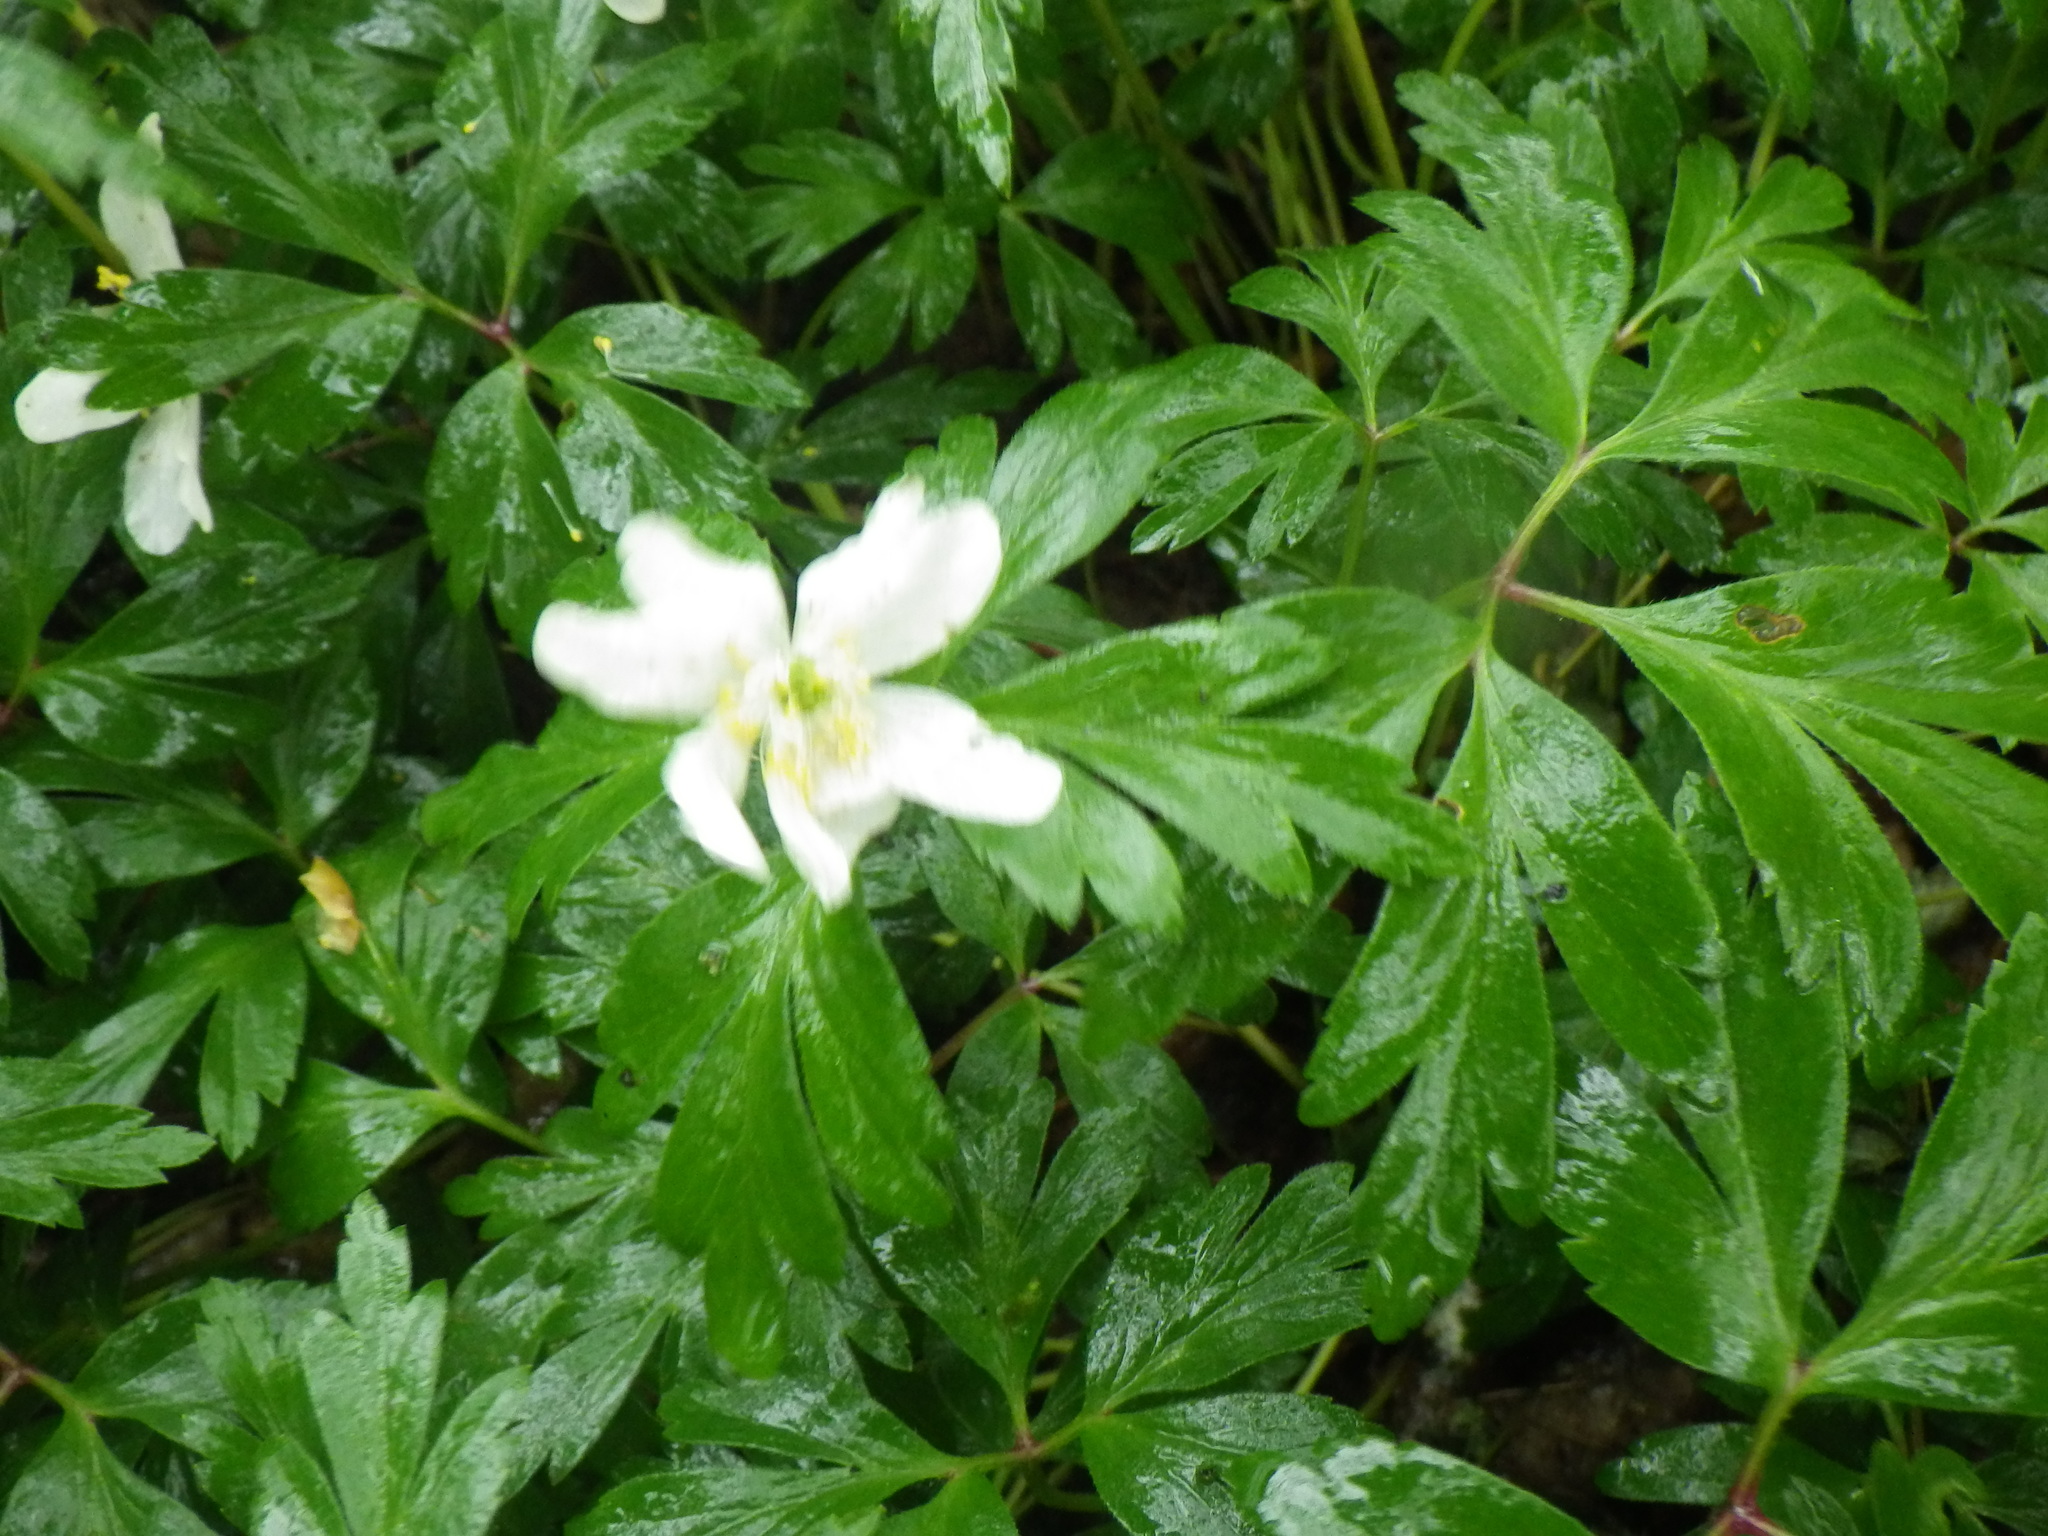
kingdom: Plantae
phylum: Tracheophyta
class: Magnoliopsida
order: Ranunculales
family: Ranunculaceae
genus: Anemone
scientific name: Anemone nemorosa
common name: Wood anemone
